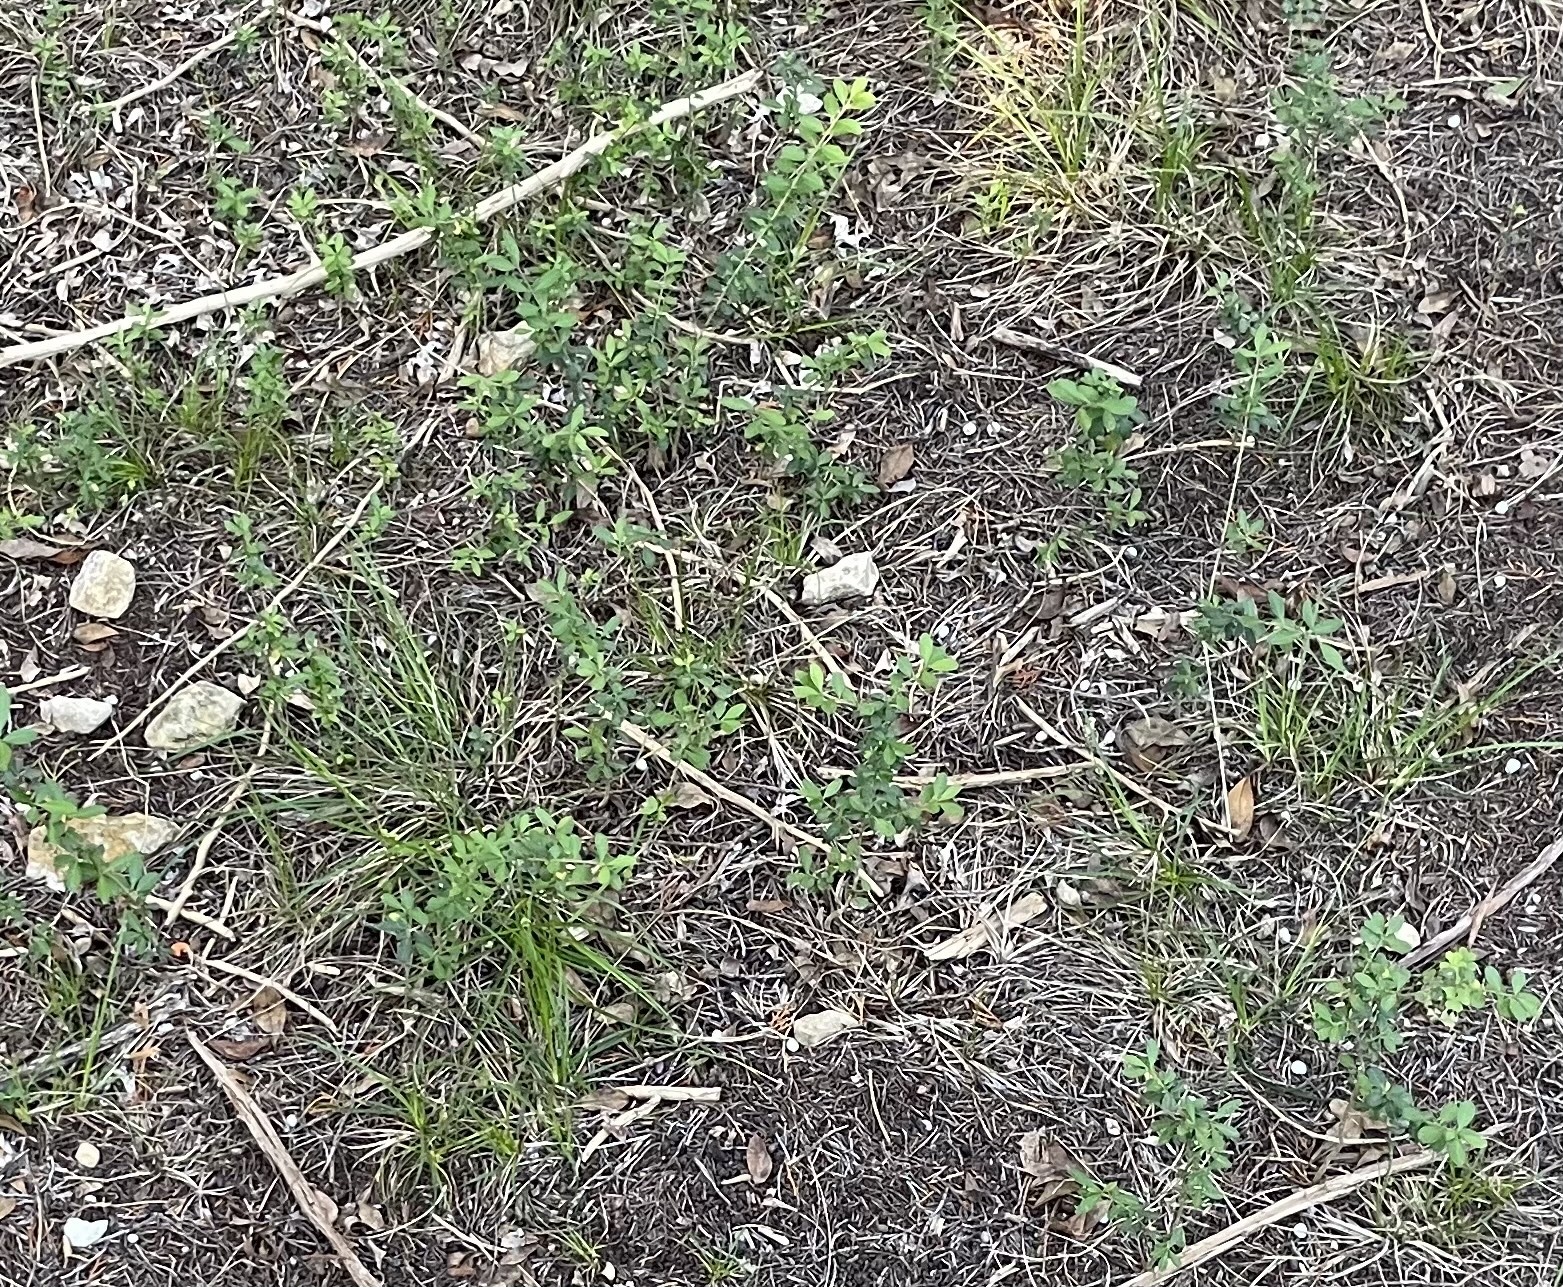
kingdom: Plantae
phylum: Tracheophyta
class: Magnoliopsida
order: Lamiales
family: Oleaceae
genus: Ligustrum
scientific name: Ligustrum quihoui
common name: Waxyleaf privet
